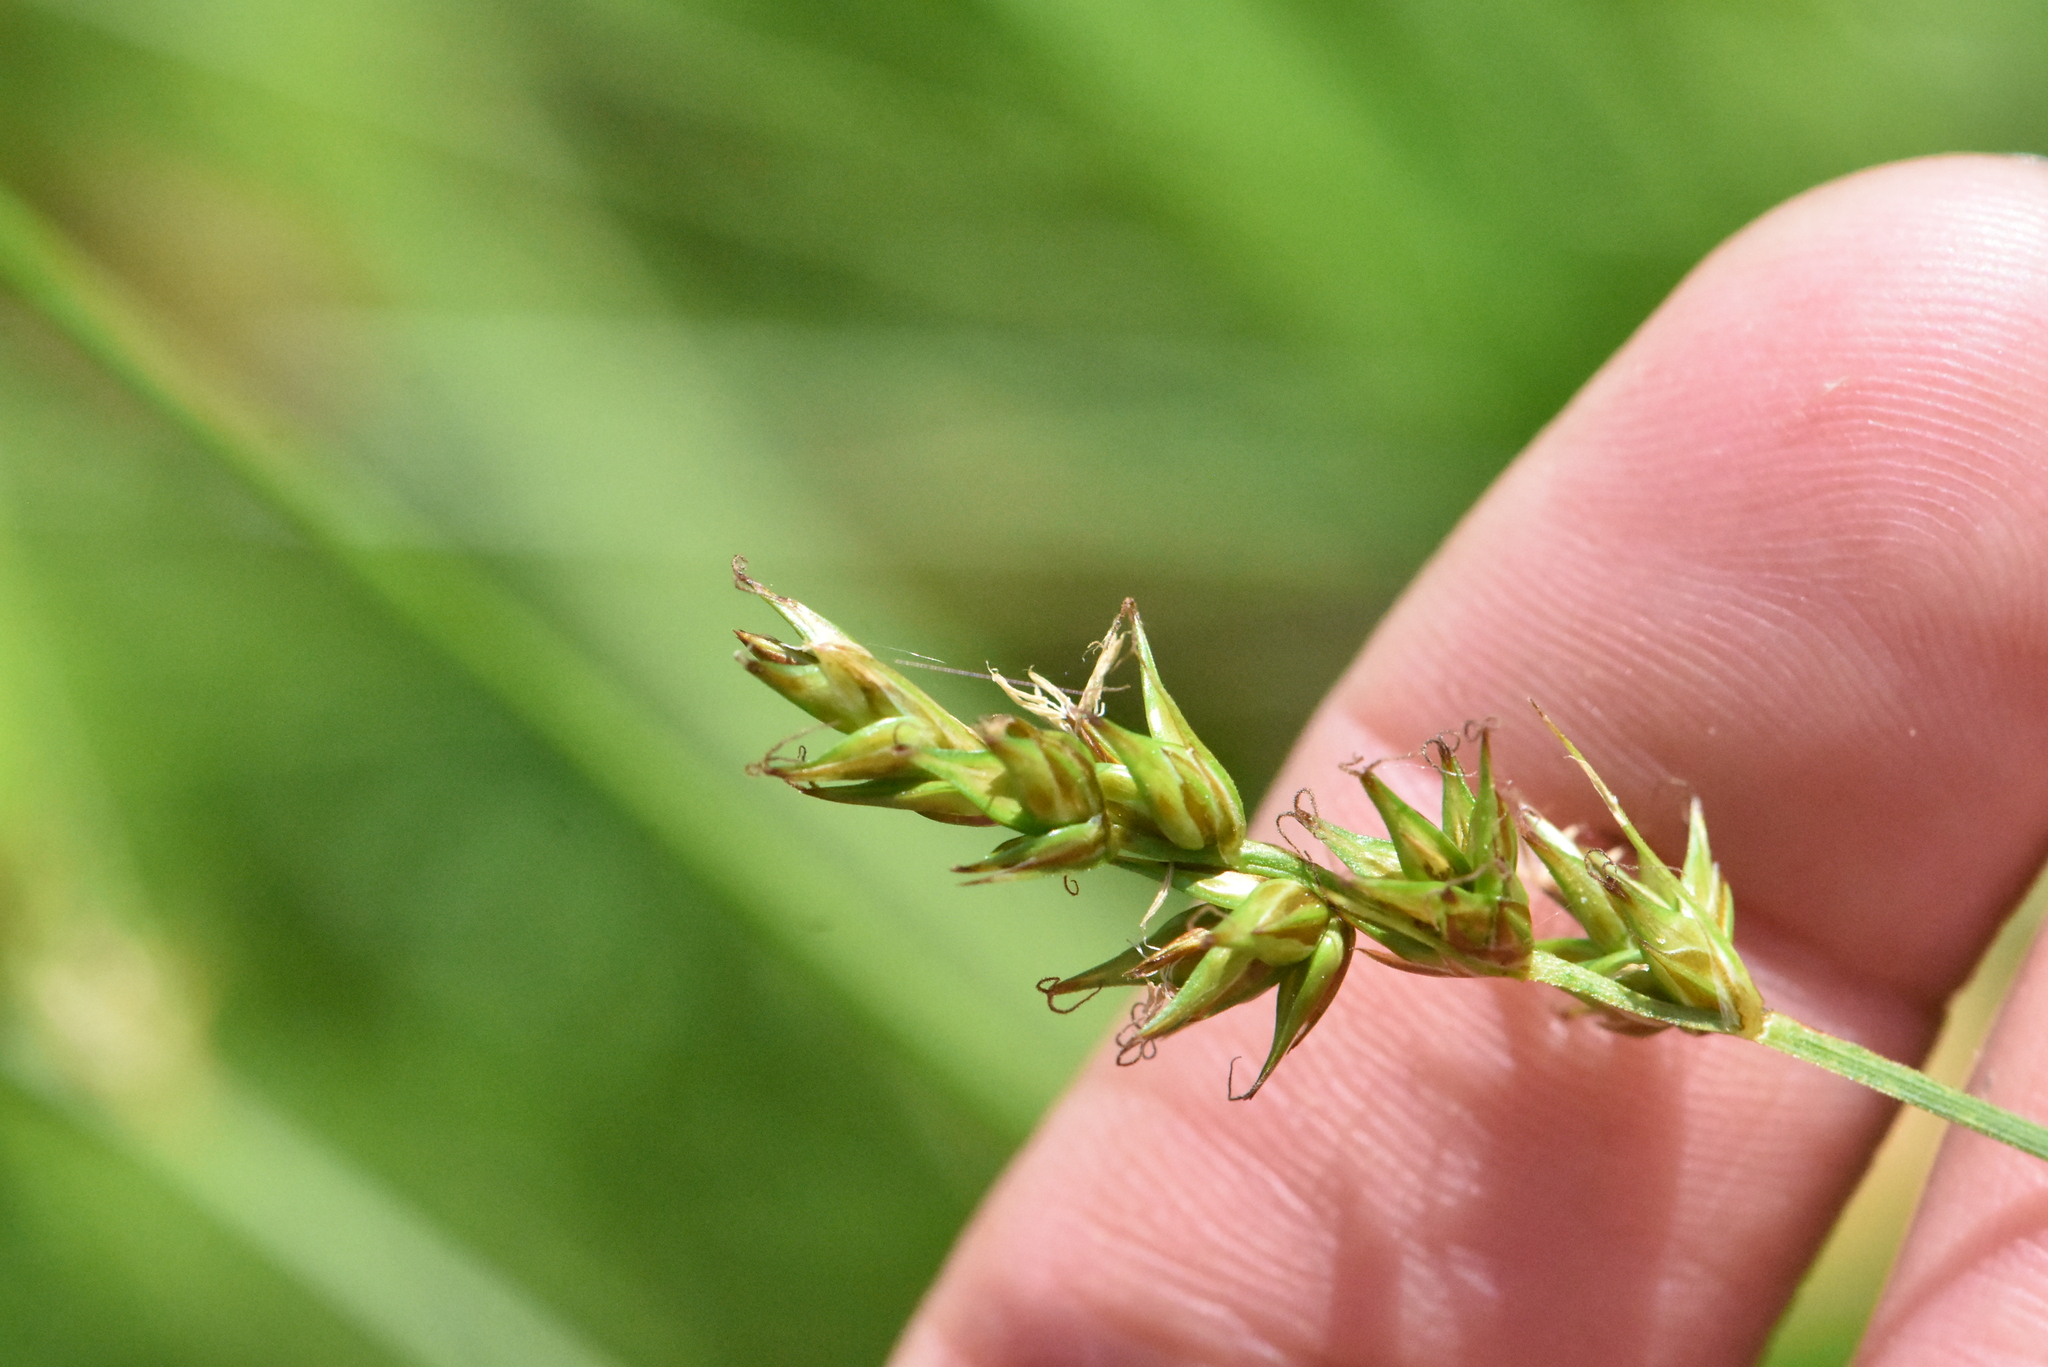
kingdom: Plantae
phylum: Tracheophyta
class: Liliopsida
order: Poales
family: Cyperaceae
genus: Carex
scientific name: Carex spicata
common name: Spiked sedge
